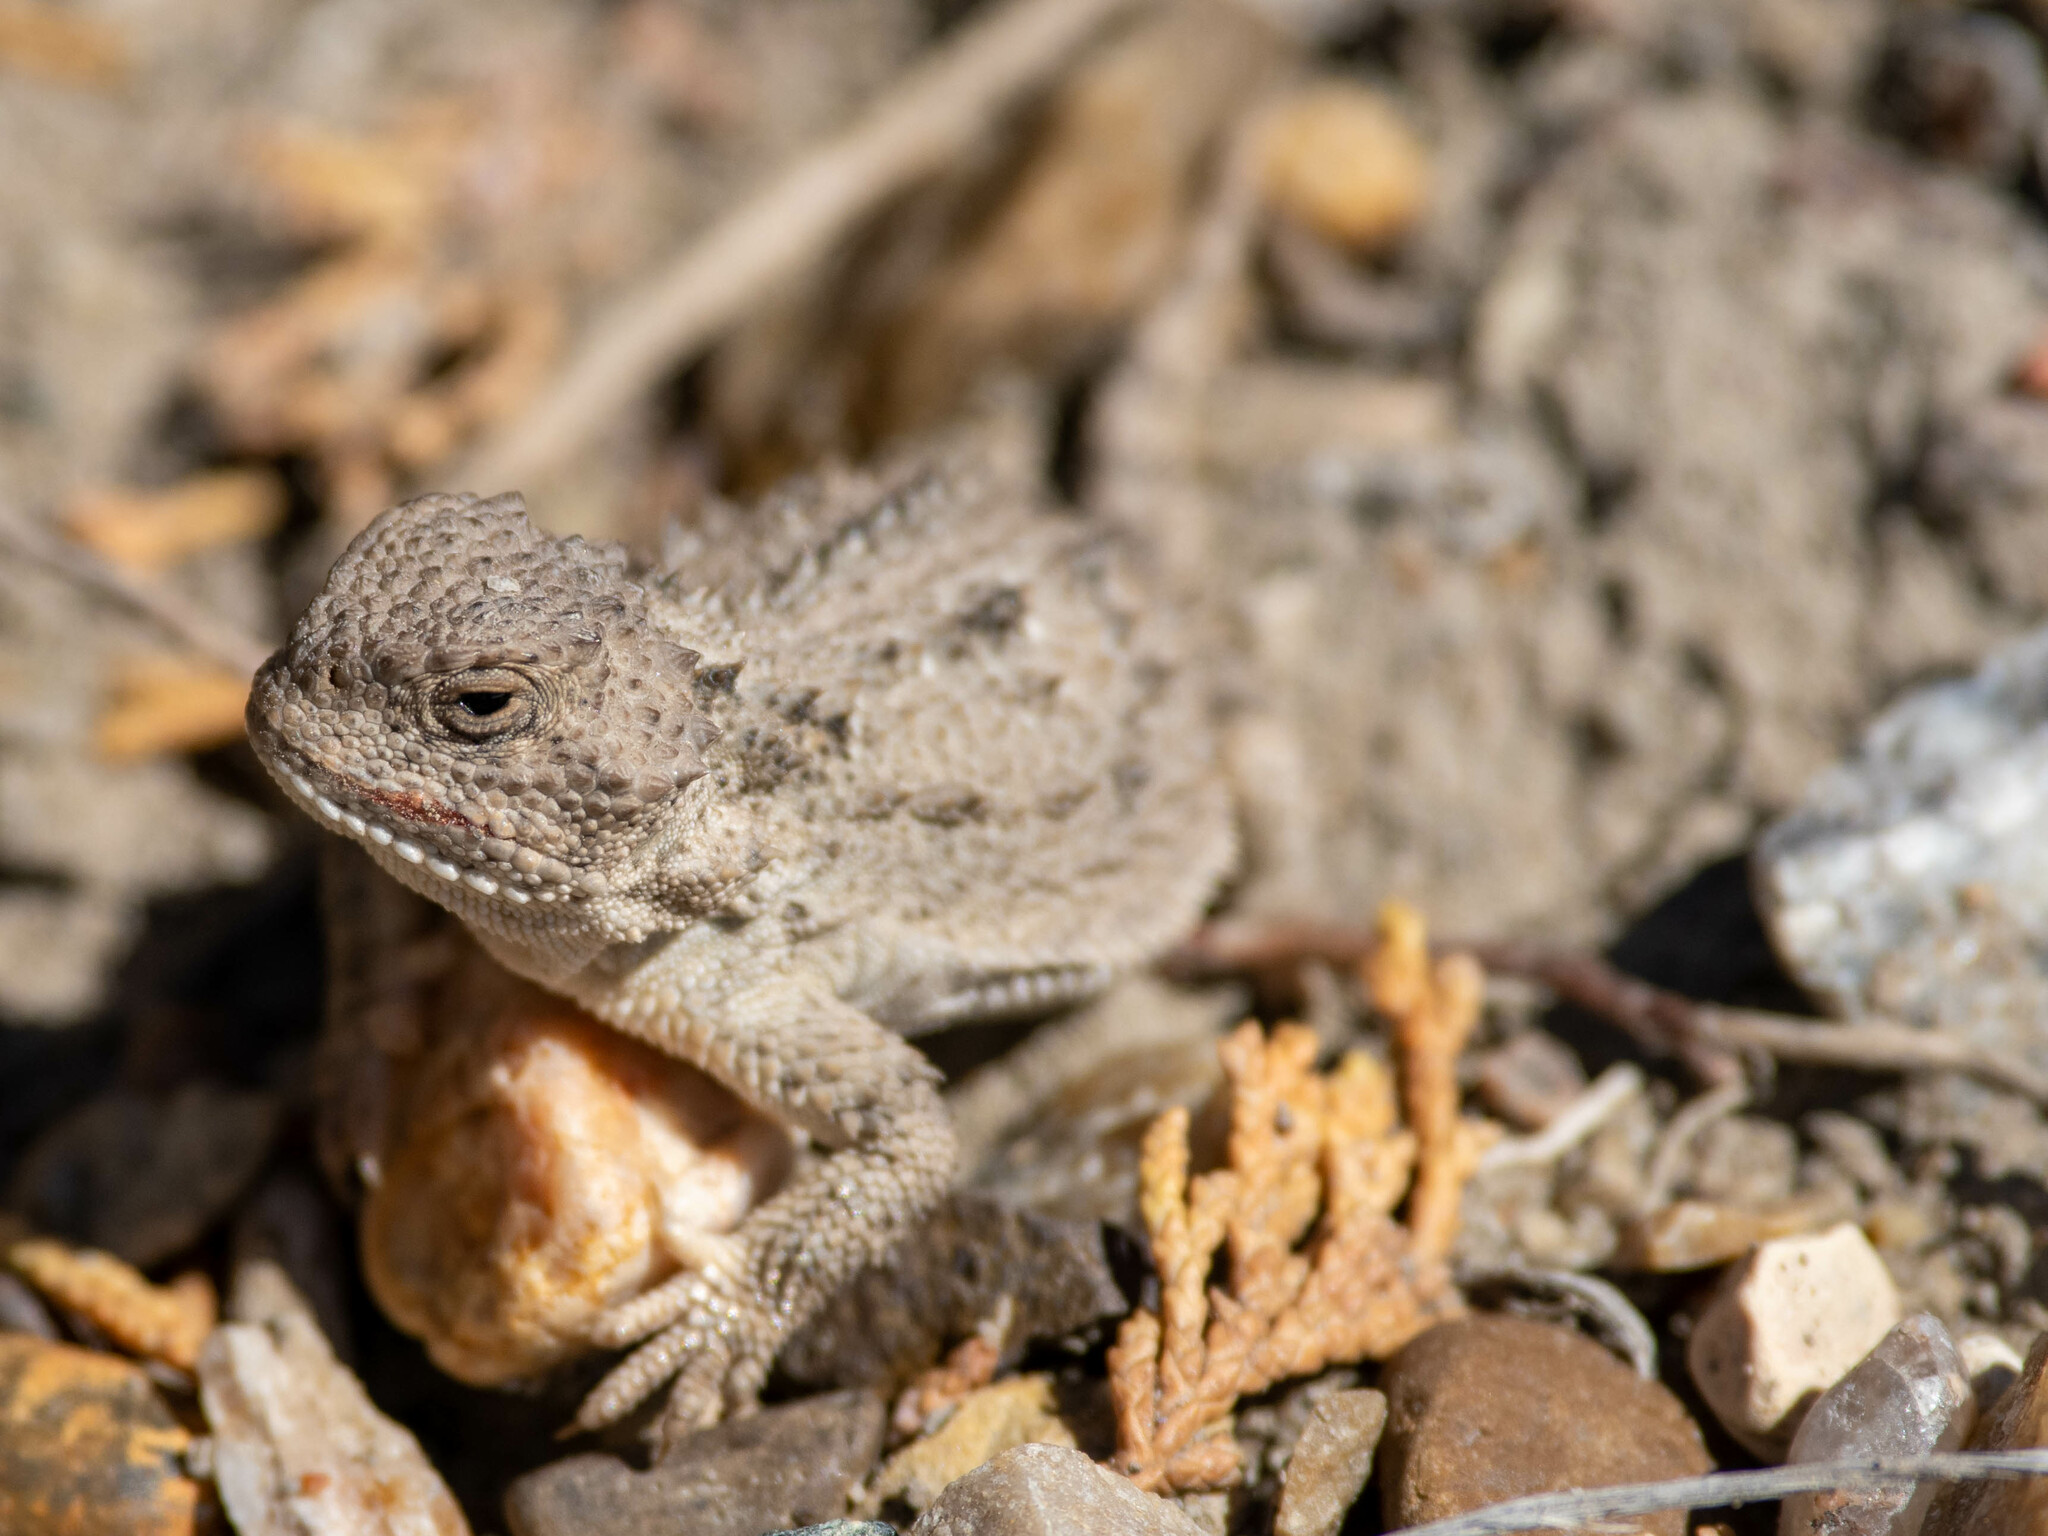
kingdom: Animalia
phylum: Chordata
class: Squamata
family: Phrynosomatidae
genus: Phrynosoma
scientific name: Phrynosoma hernandesi
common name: Greater short-horned lizard
